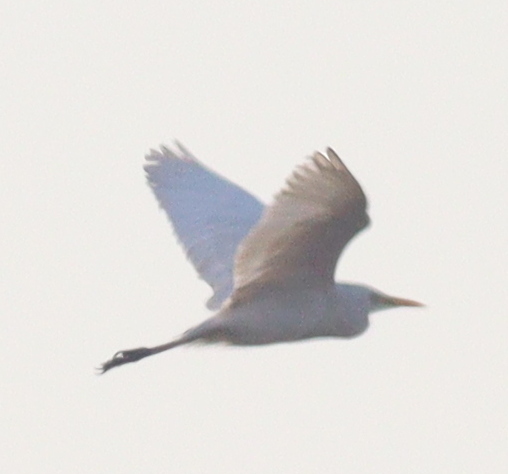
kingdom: Animalia
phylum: Chordata
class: Aves
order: Pelecaniformes
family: Ardeidae
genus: Bubulcus
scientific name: Bubulcus ibis
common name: Cattle egret
